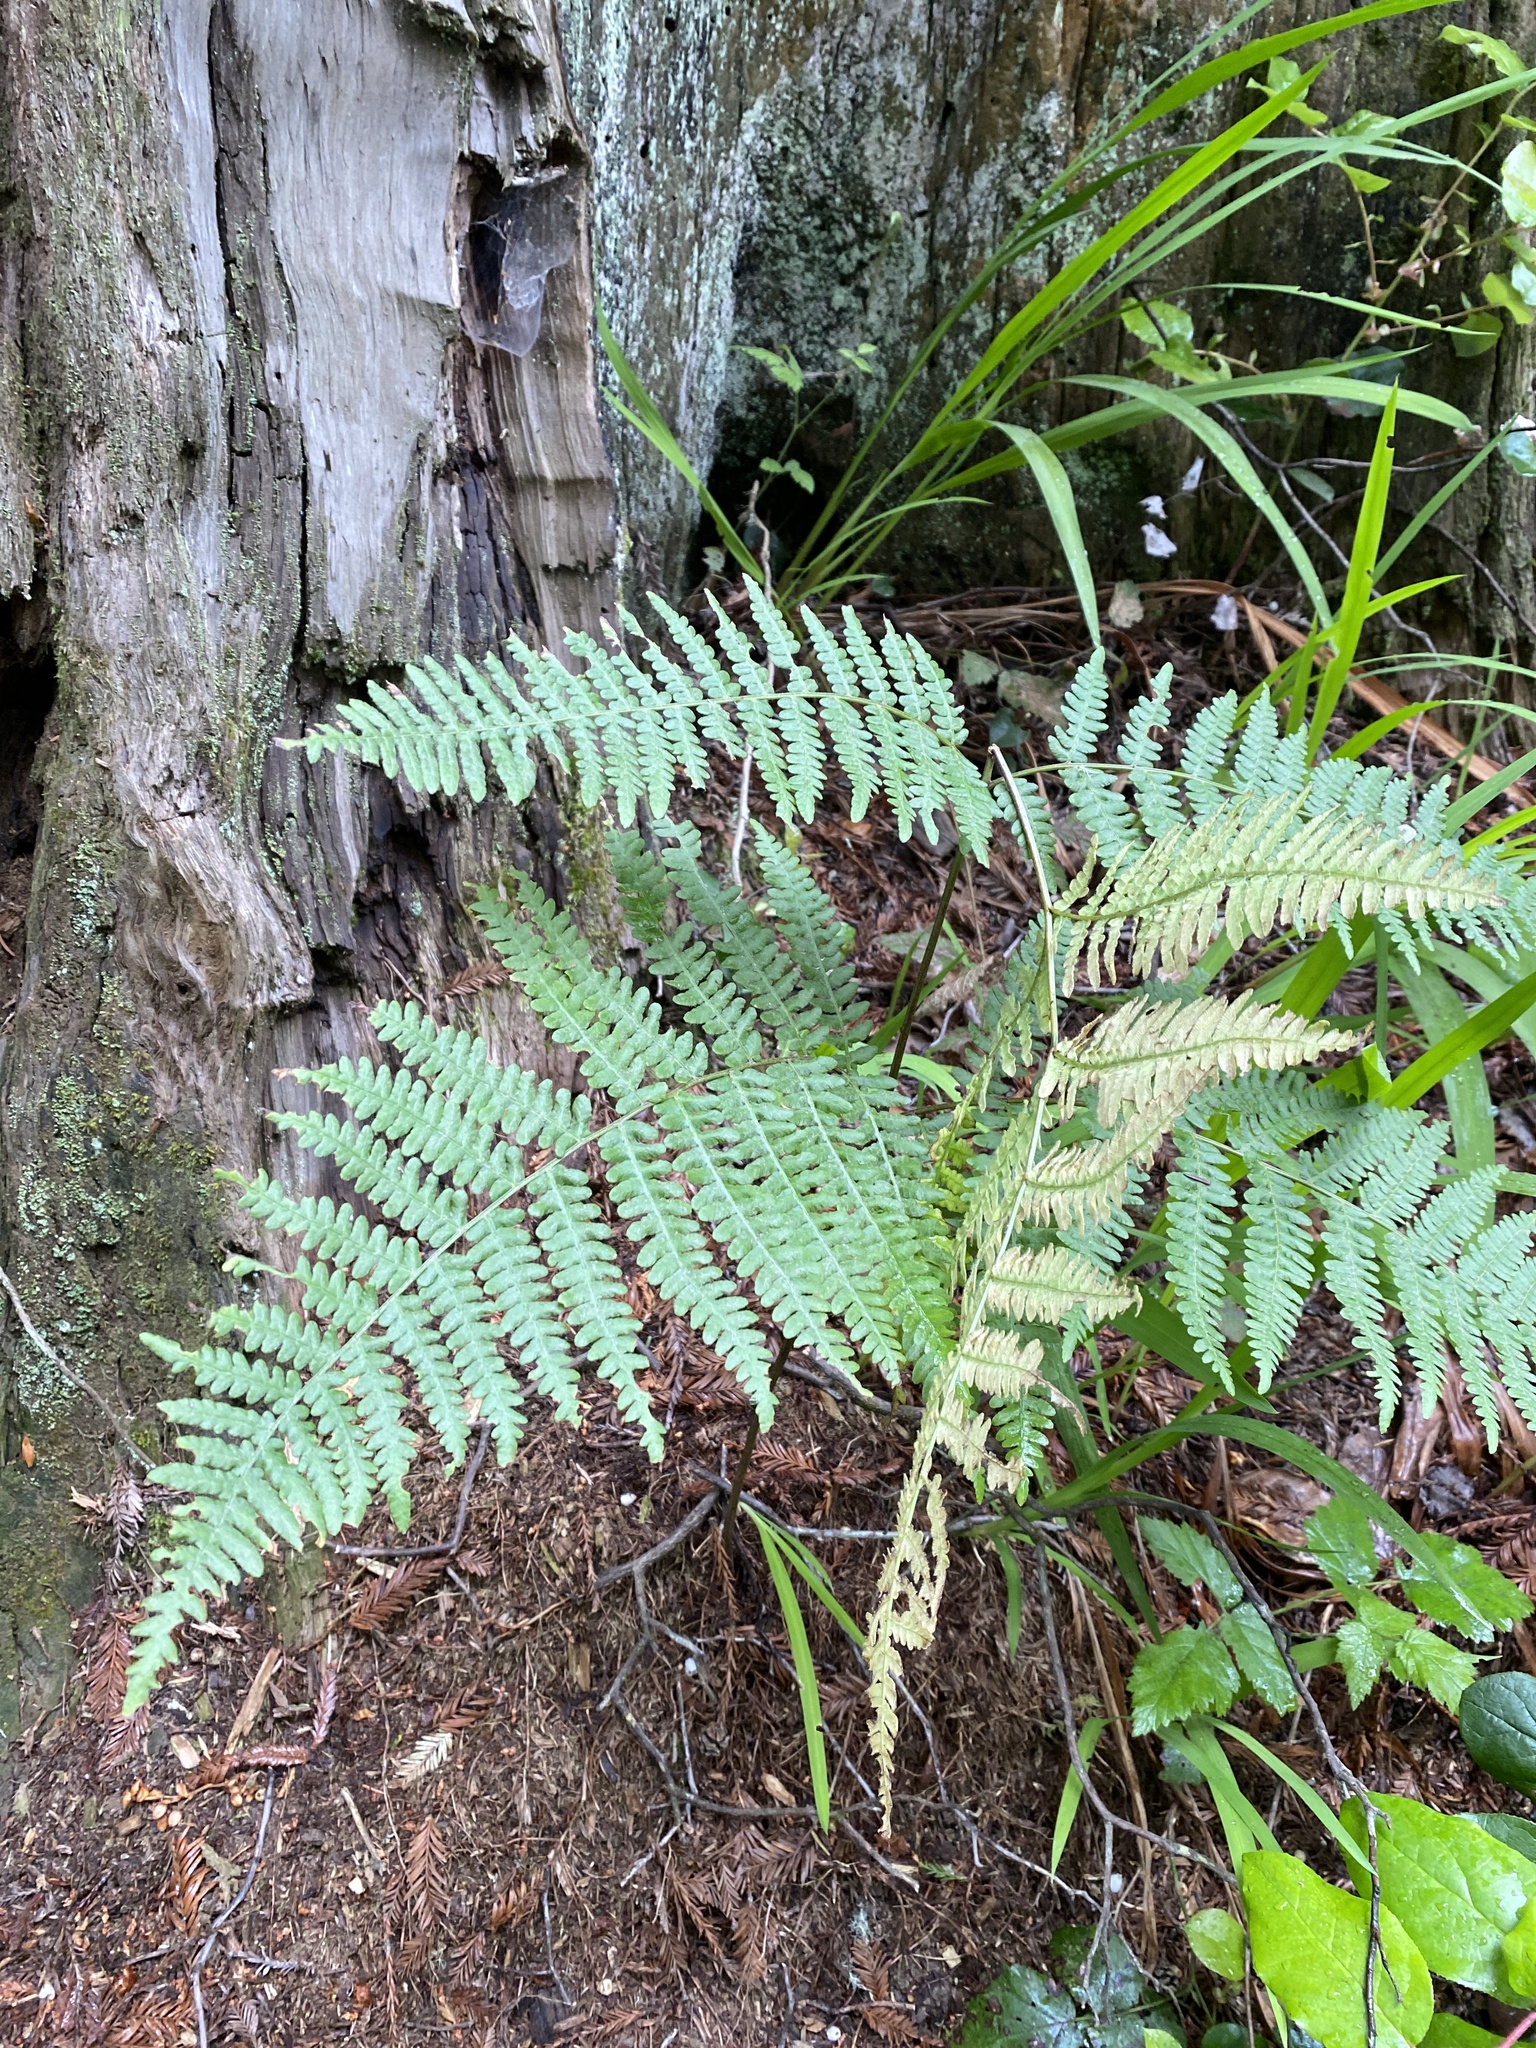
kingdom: Plantae
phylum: Tracheophyta
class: Polypodiopsida
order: Polypodiales
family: Dennstaedtiaceae
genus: Pteridium
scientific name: Pteridium aquilinum
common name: Bracken
